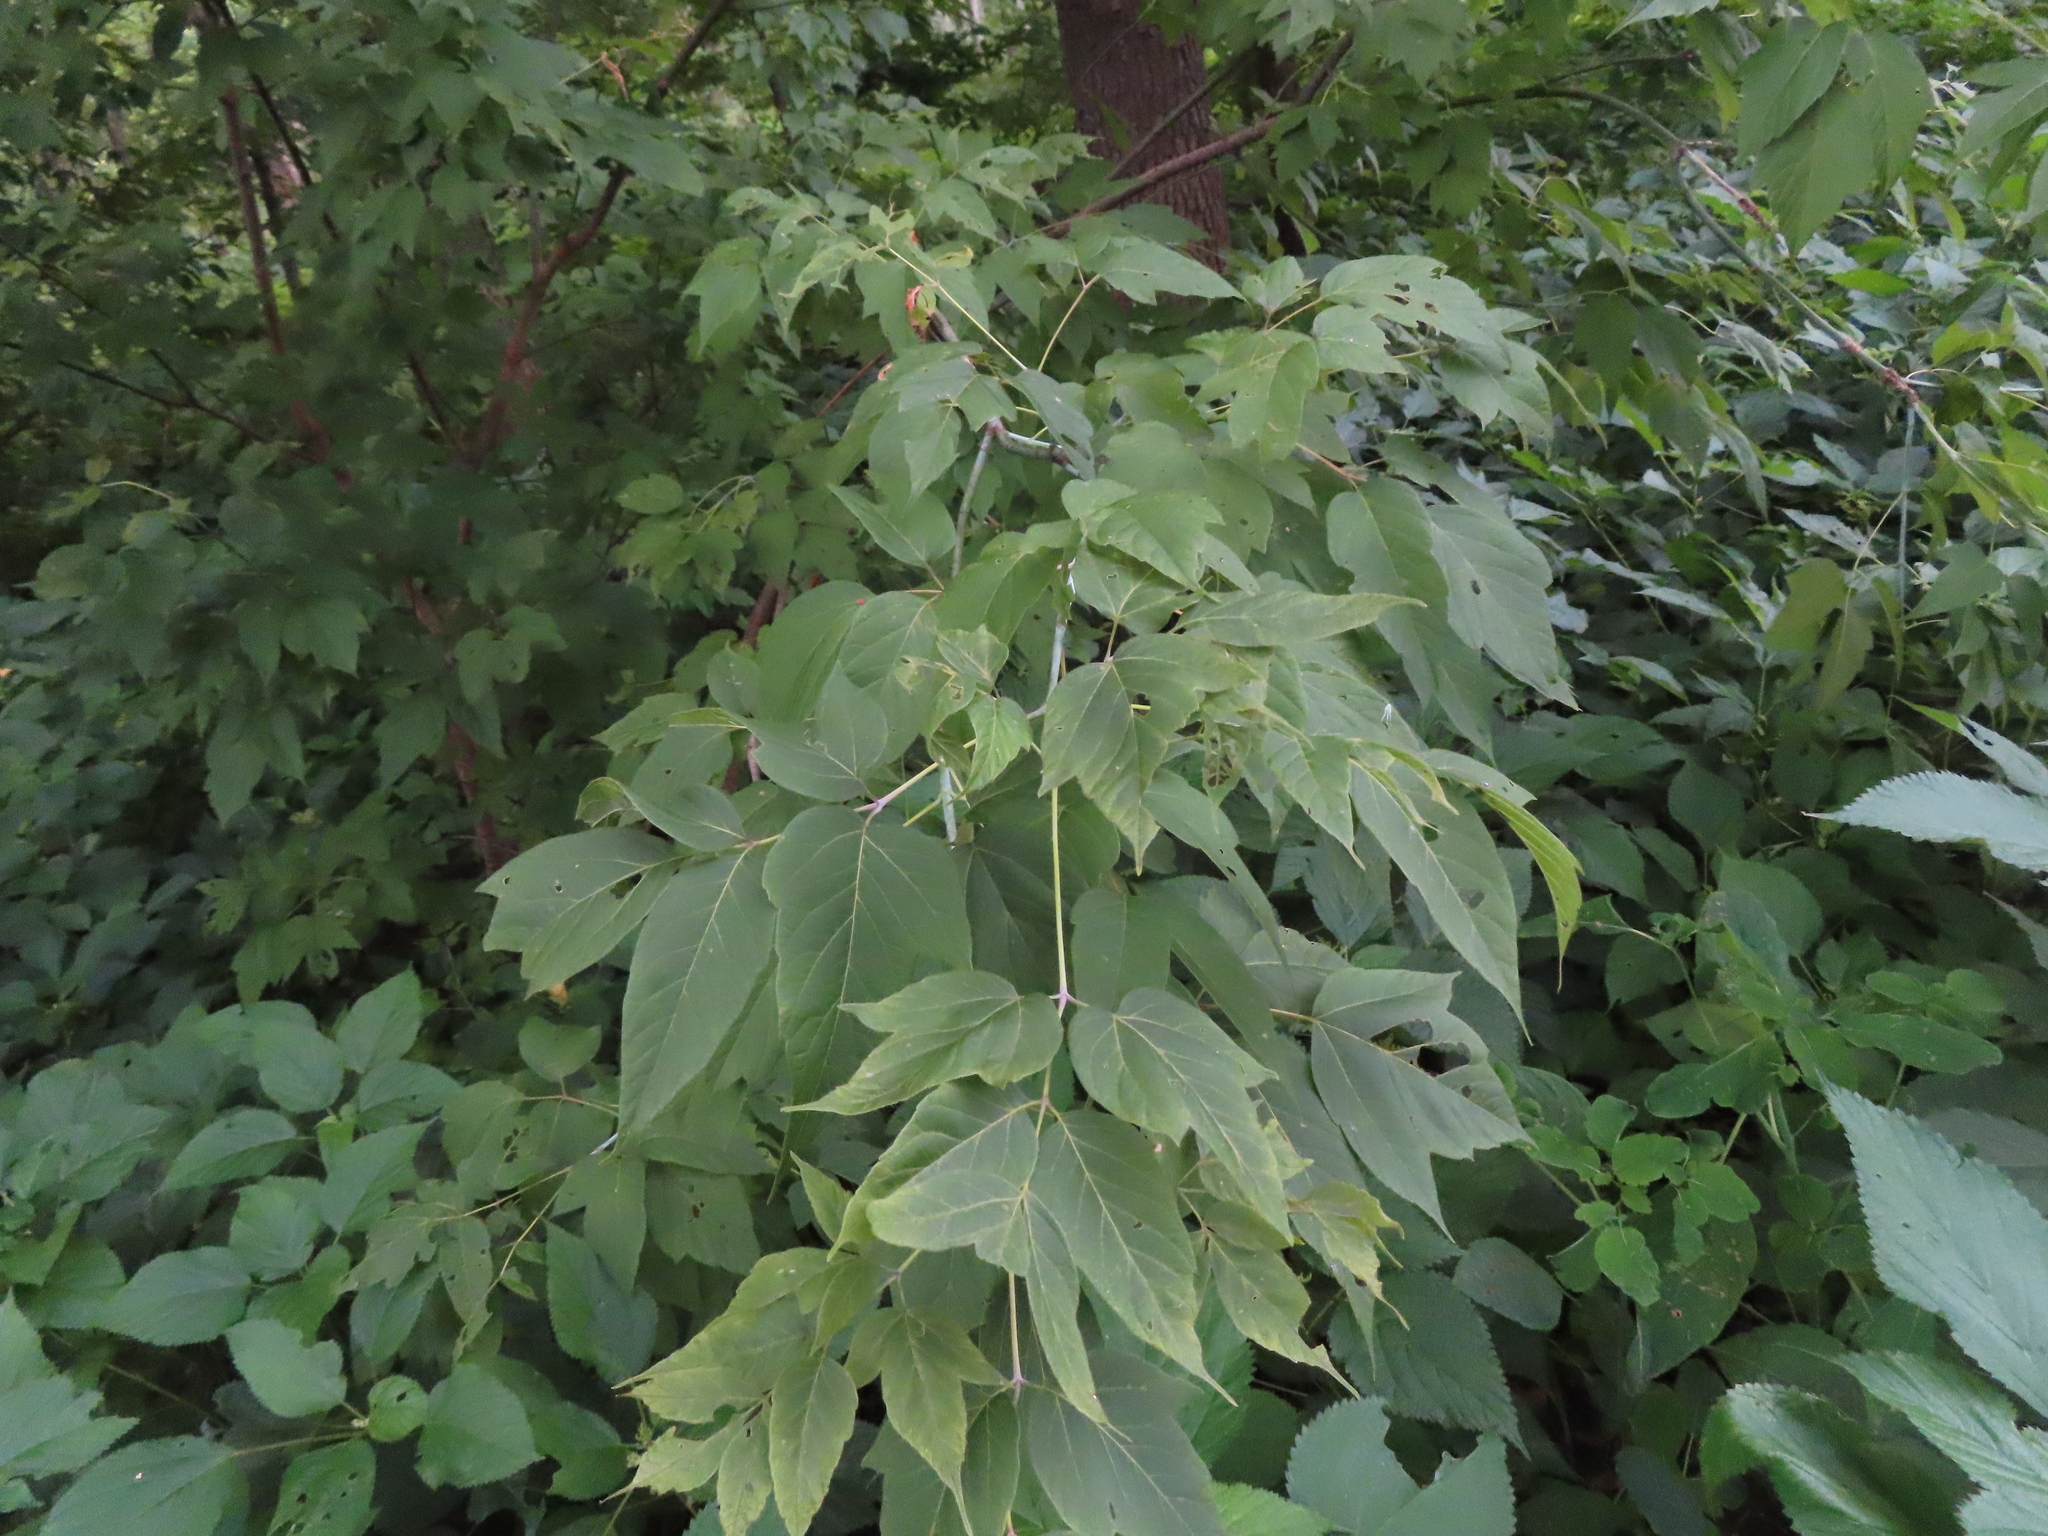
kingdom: Plantae
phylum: Tracheophyta
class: Magnoliopsida
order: Sapindales
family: Sapindaceae
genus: Acer
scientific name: Acer negundo
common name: Ashleaf maple
